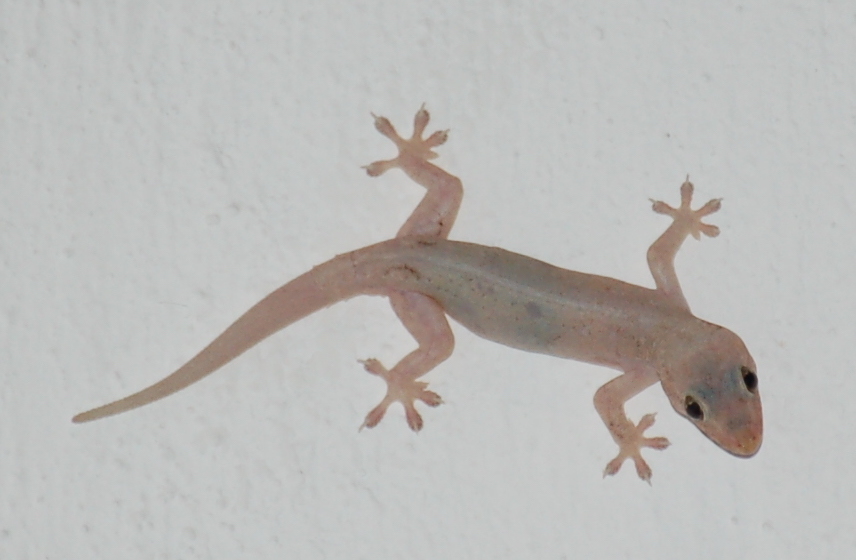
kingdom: Animalia
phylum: Chordata
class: Squamata
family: Gekkonidae
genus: Hemidactylus
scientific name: Hemidactylus frenatus
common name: Common house gecko
